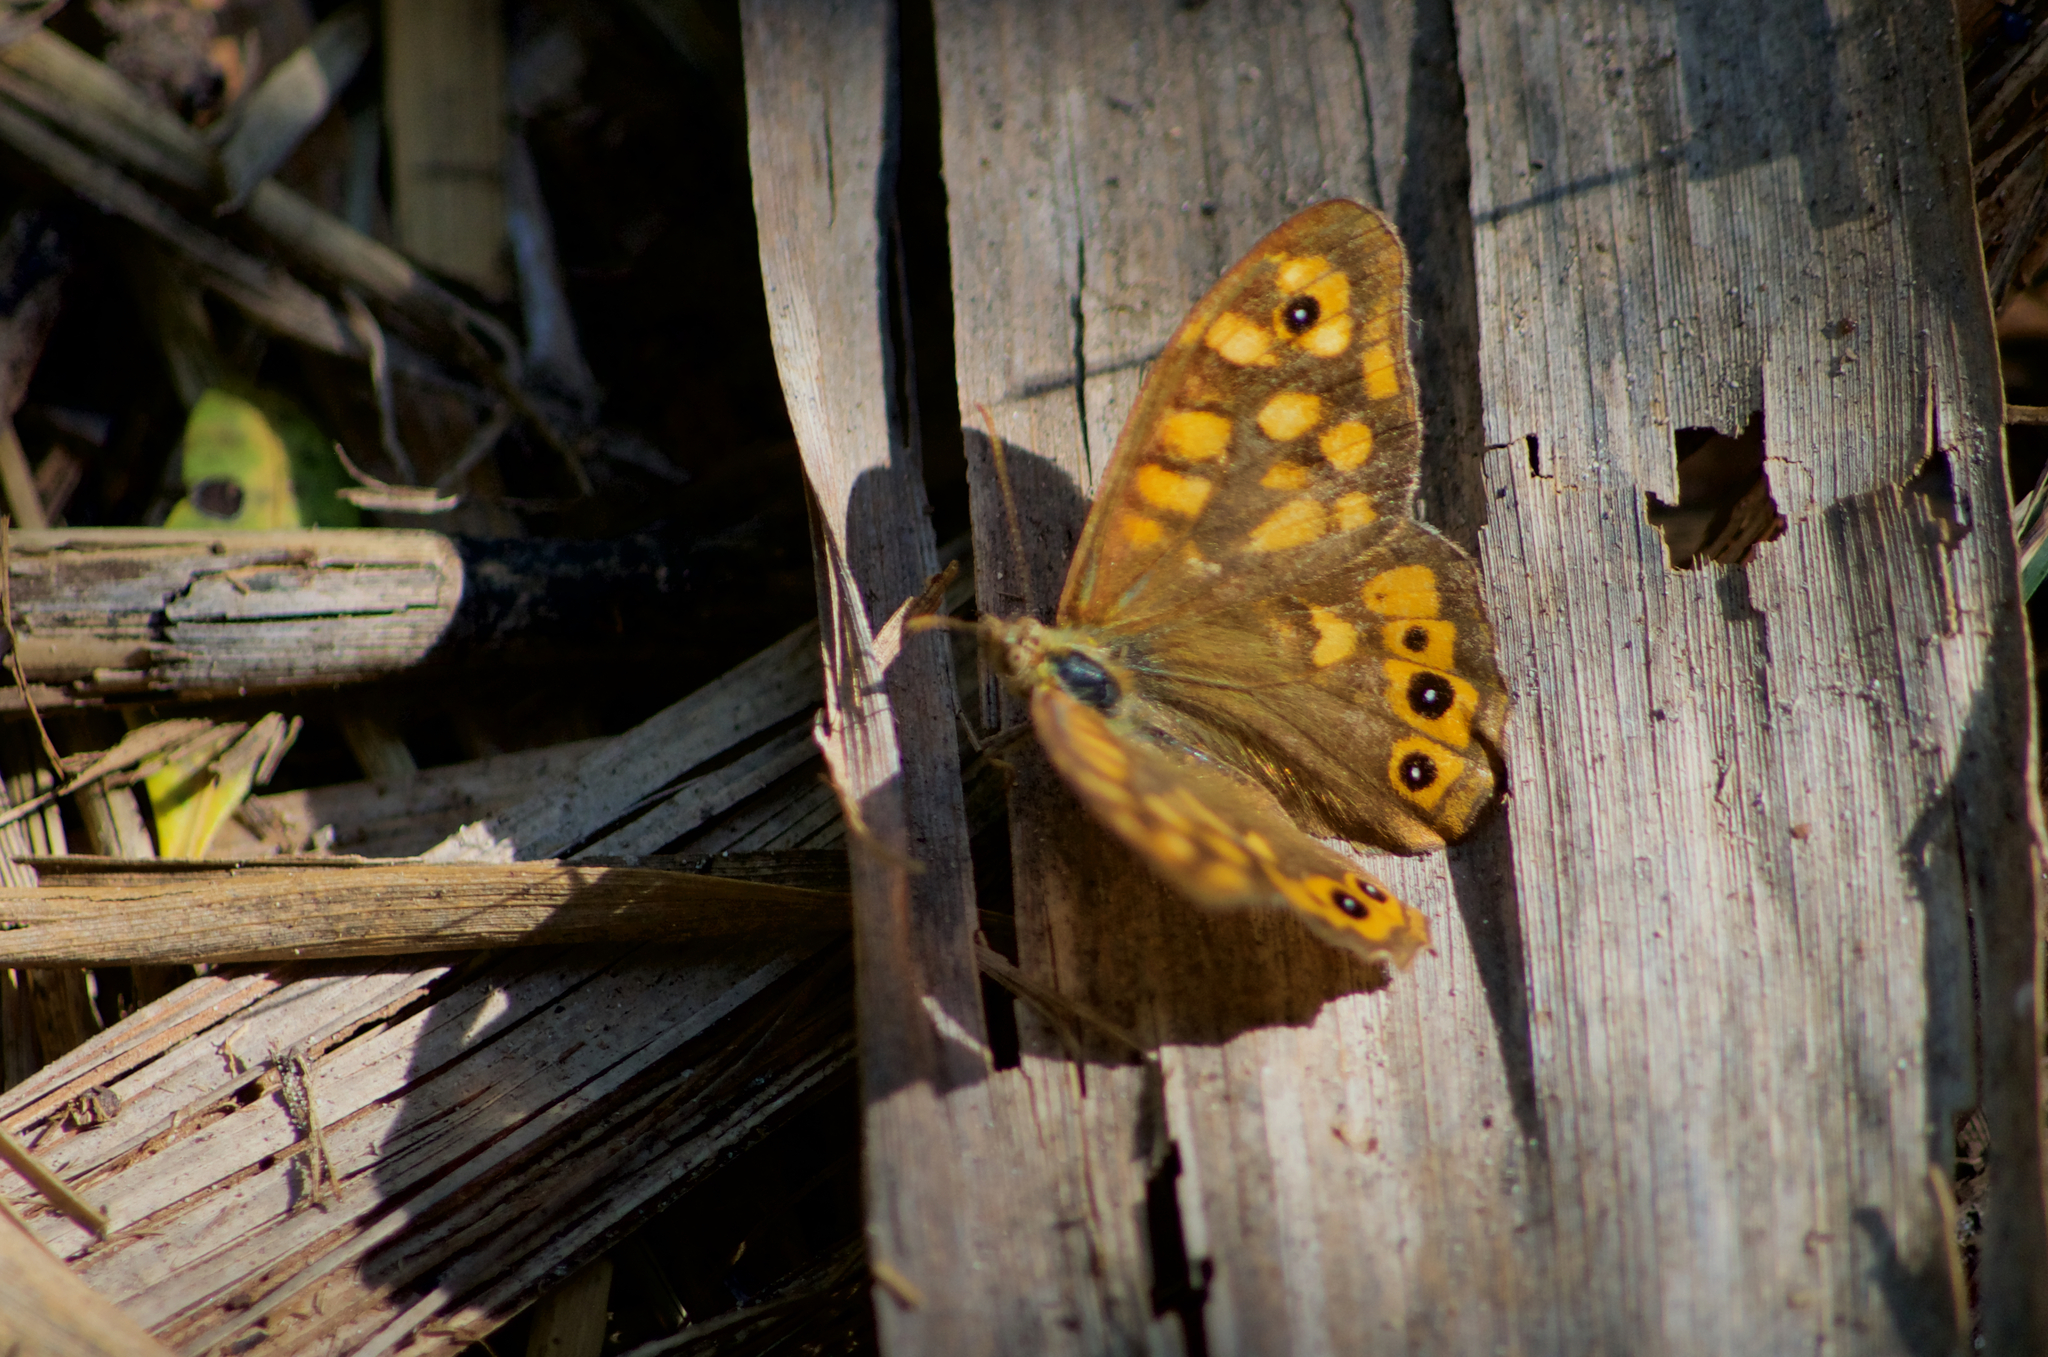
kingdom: Animalia
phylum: Arthropoda
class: Insecta
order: Lepidoptera
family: Nymphalidae
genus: Pararge
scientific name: Pararge aegeria
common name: Speckled wood
